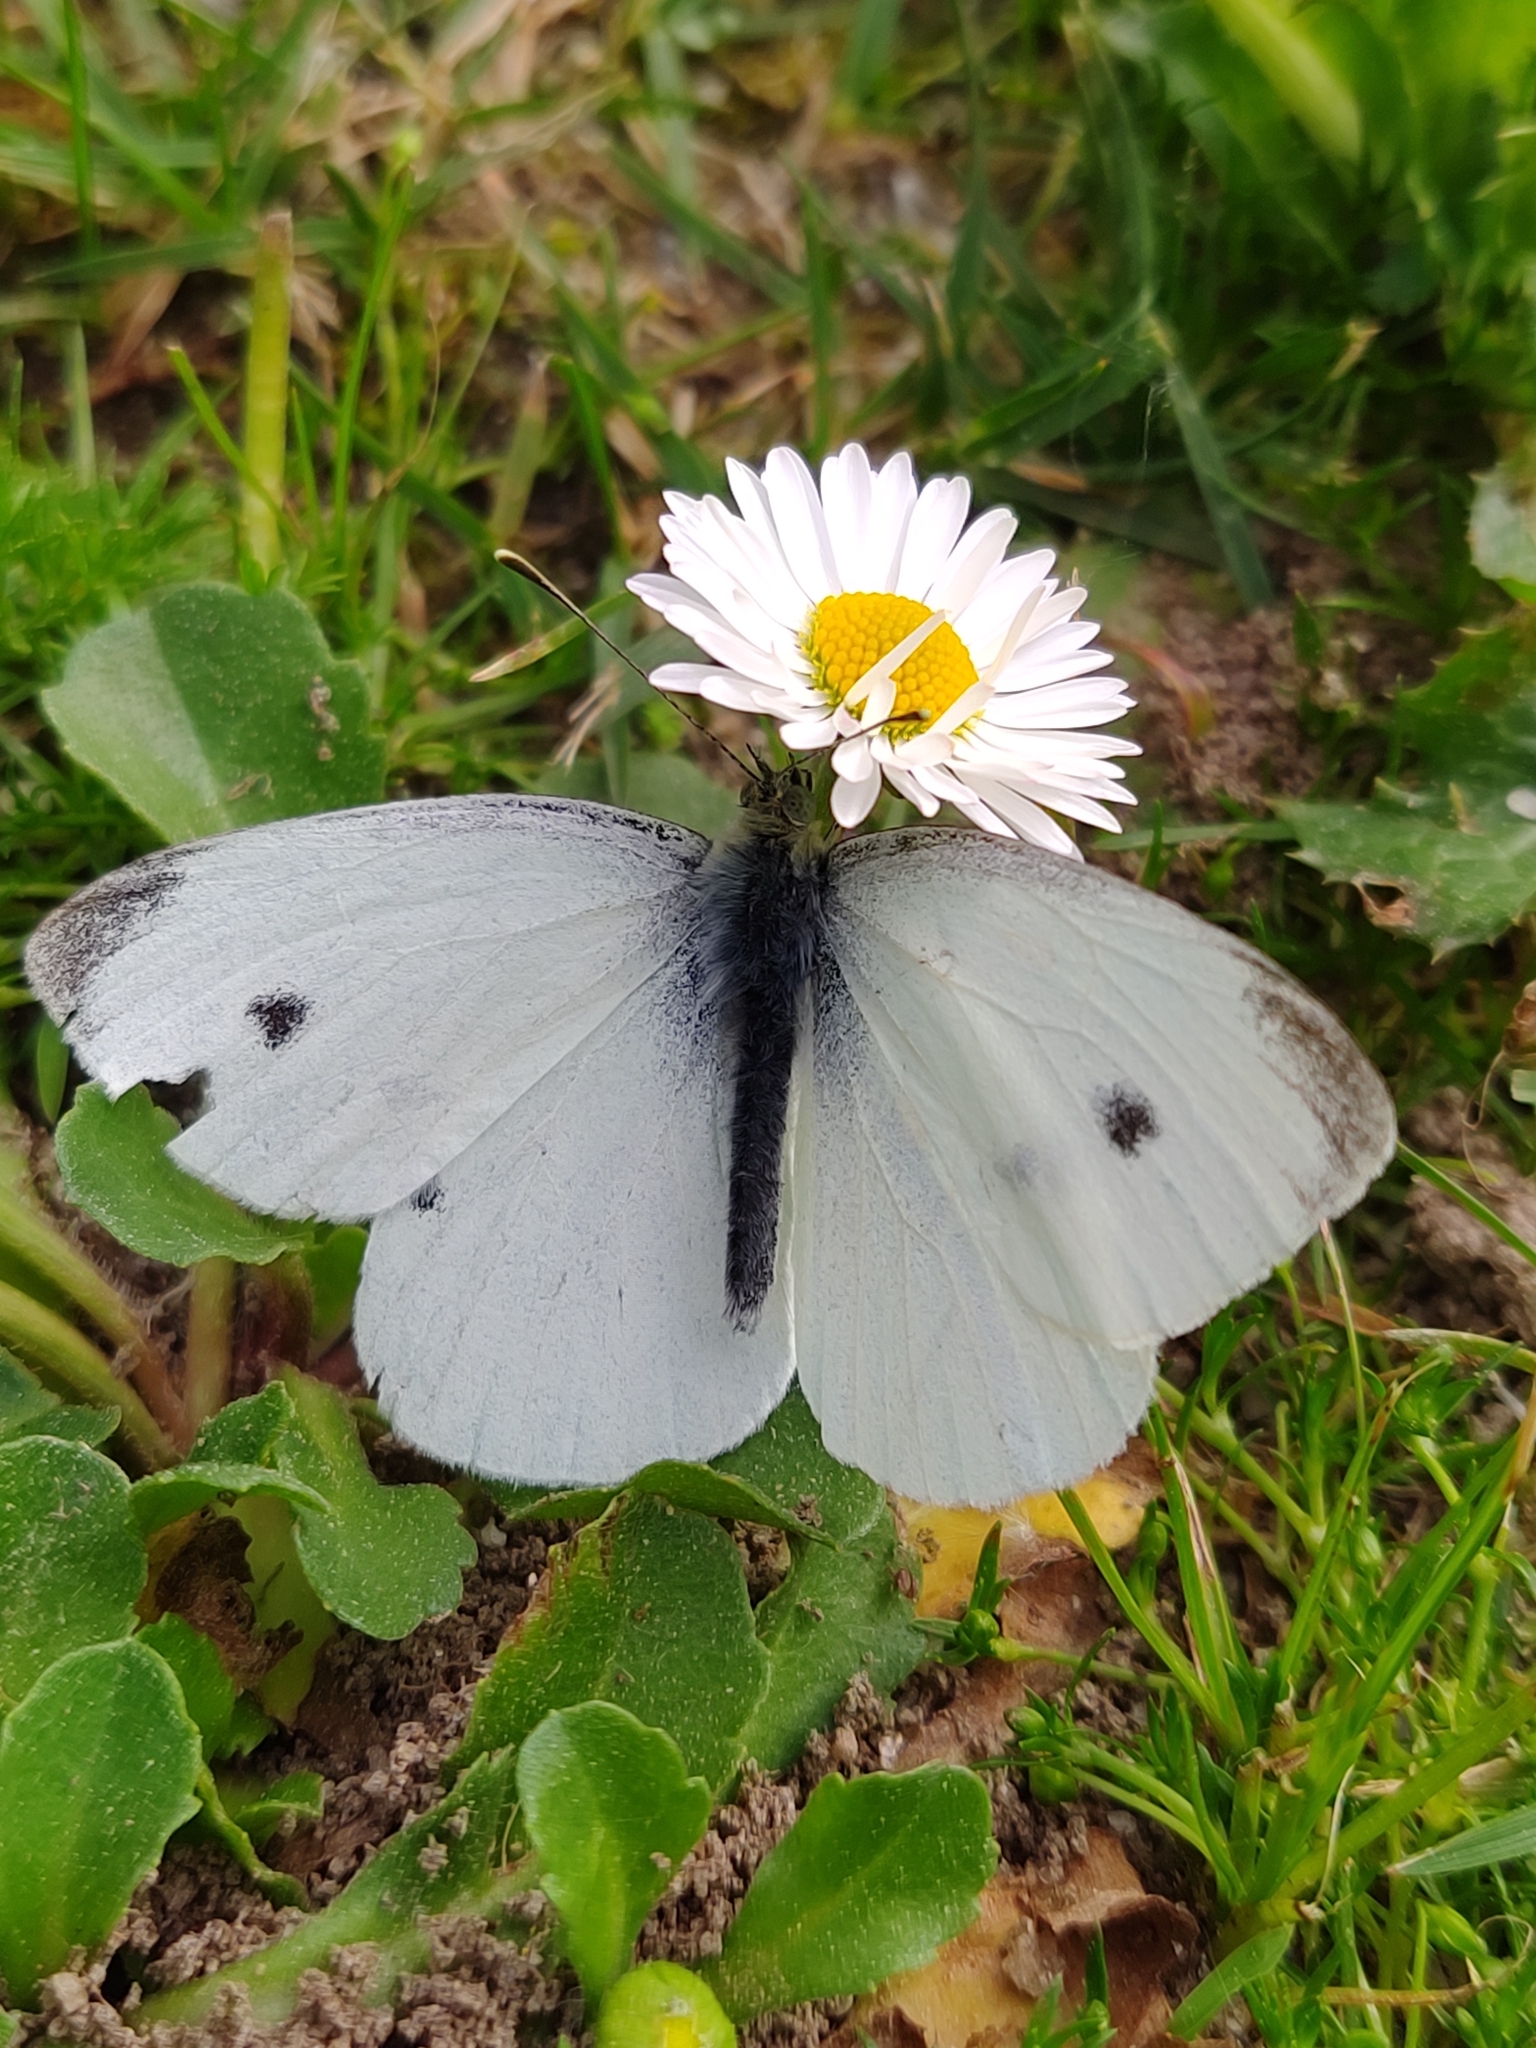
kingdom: Animalia
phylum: Arthropoda
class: Insecta
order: Lepidoptera
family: Pieridae
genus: Pieris
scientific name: Pieris rapae
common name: Small white
